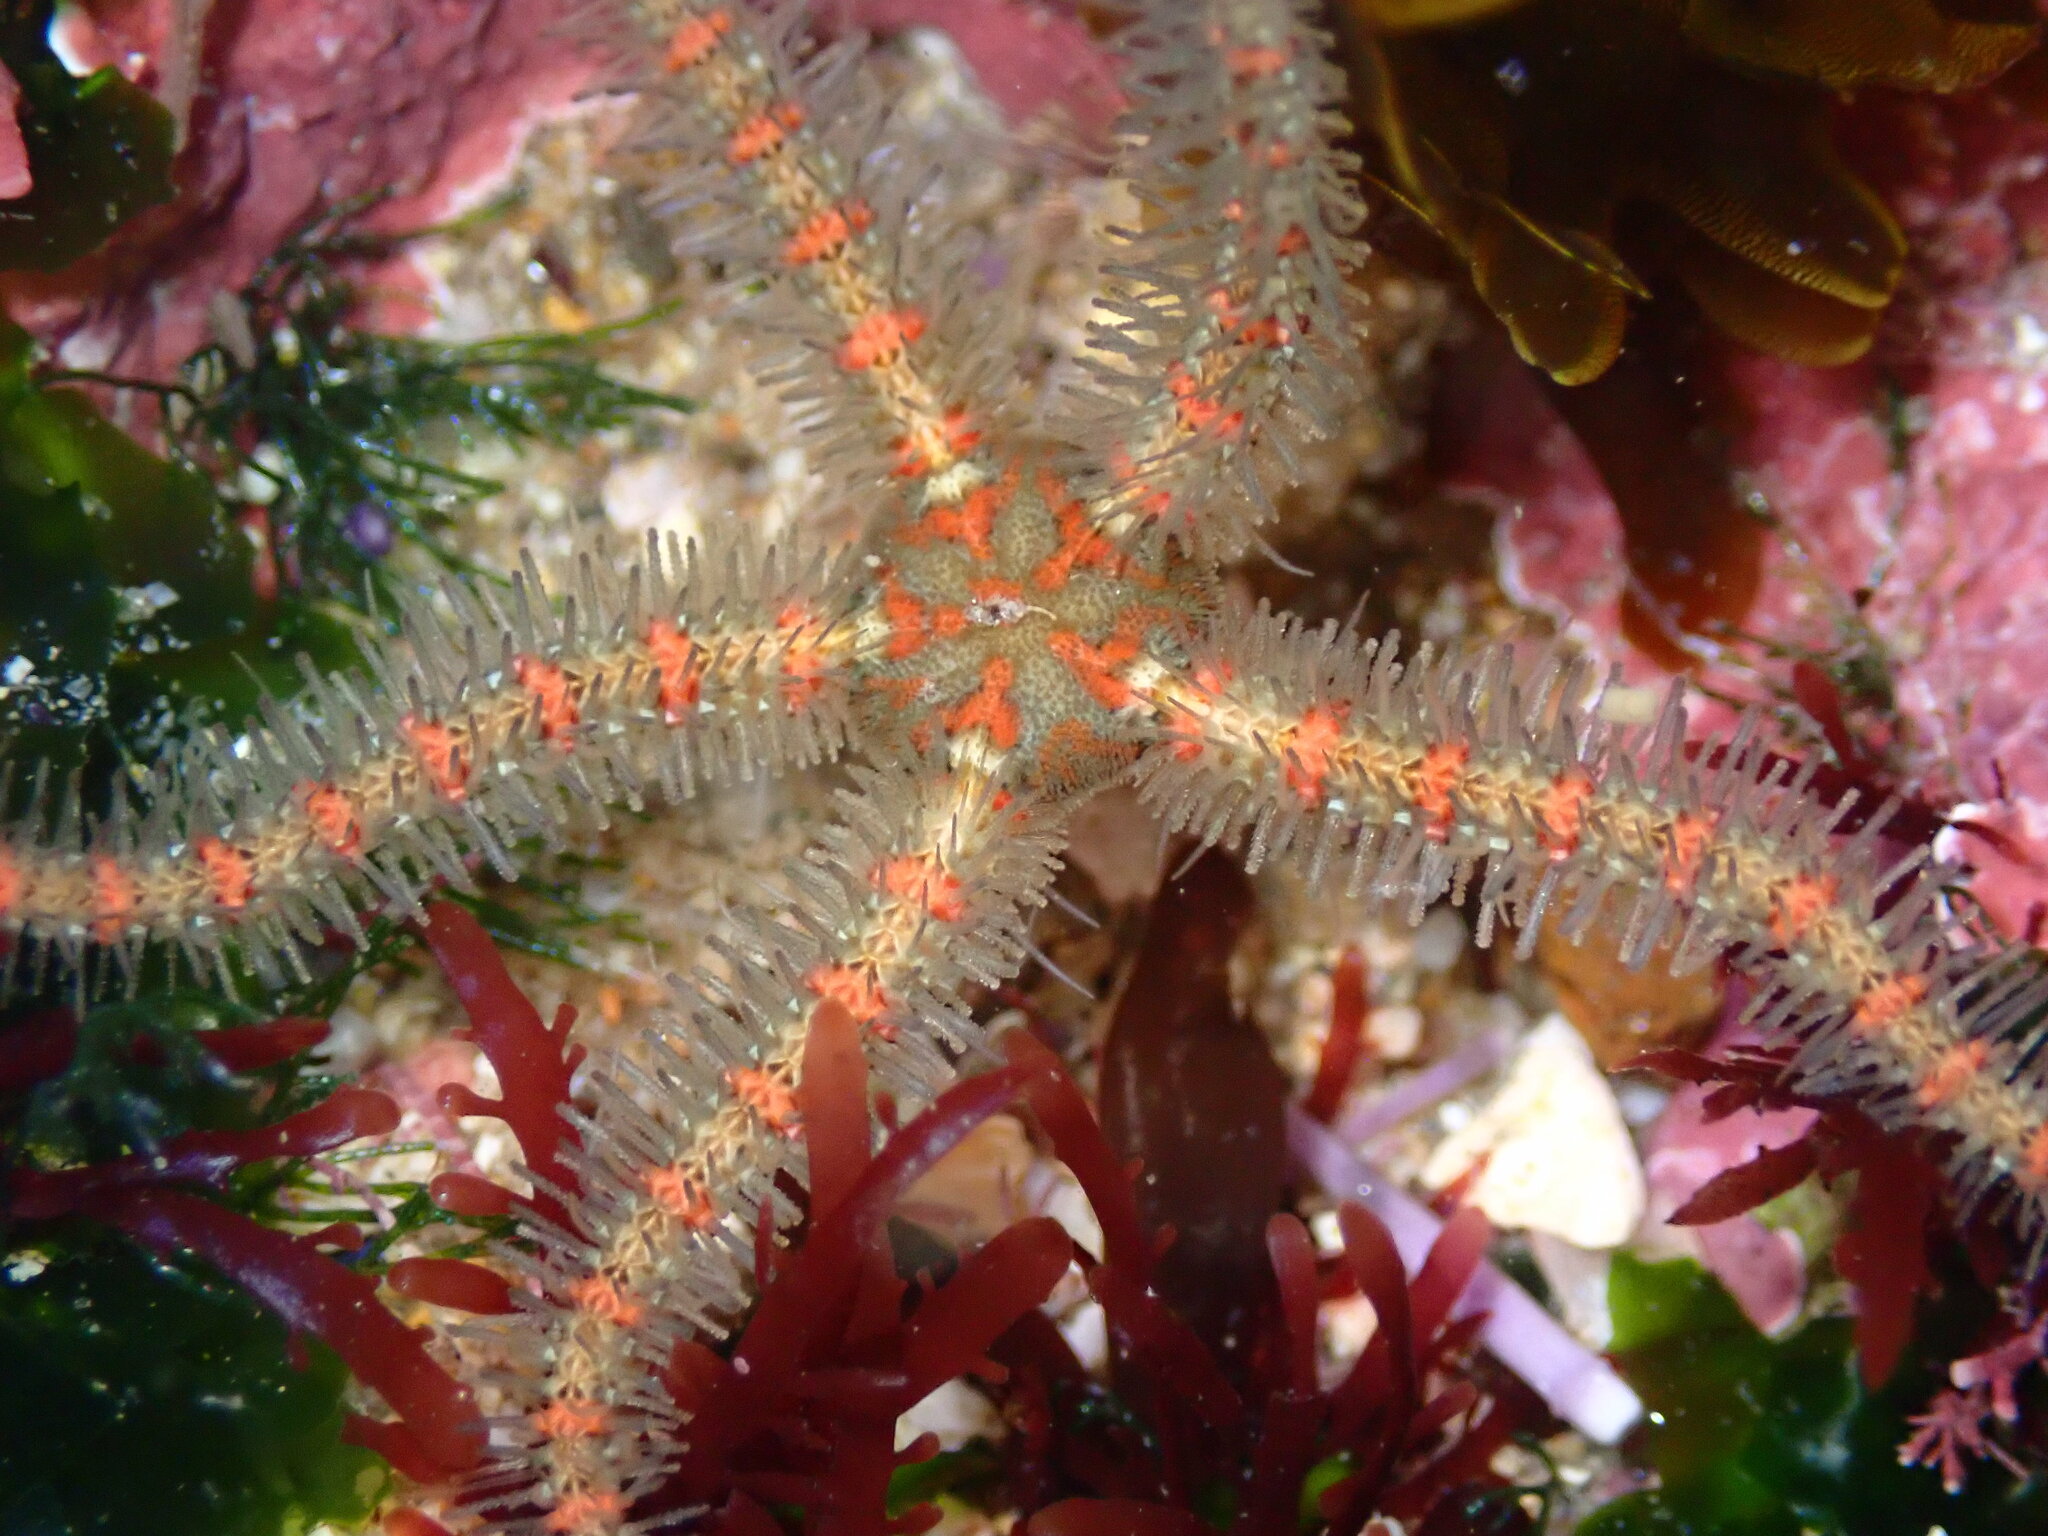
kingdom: Animalia
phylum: Echinodermata
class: Ophiuroidea
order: Amphilepidida
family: Ophiotrichidae
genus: Ophiothrix
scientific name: Ophiothrix spiculata
